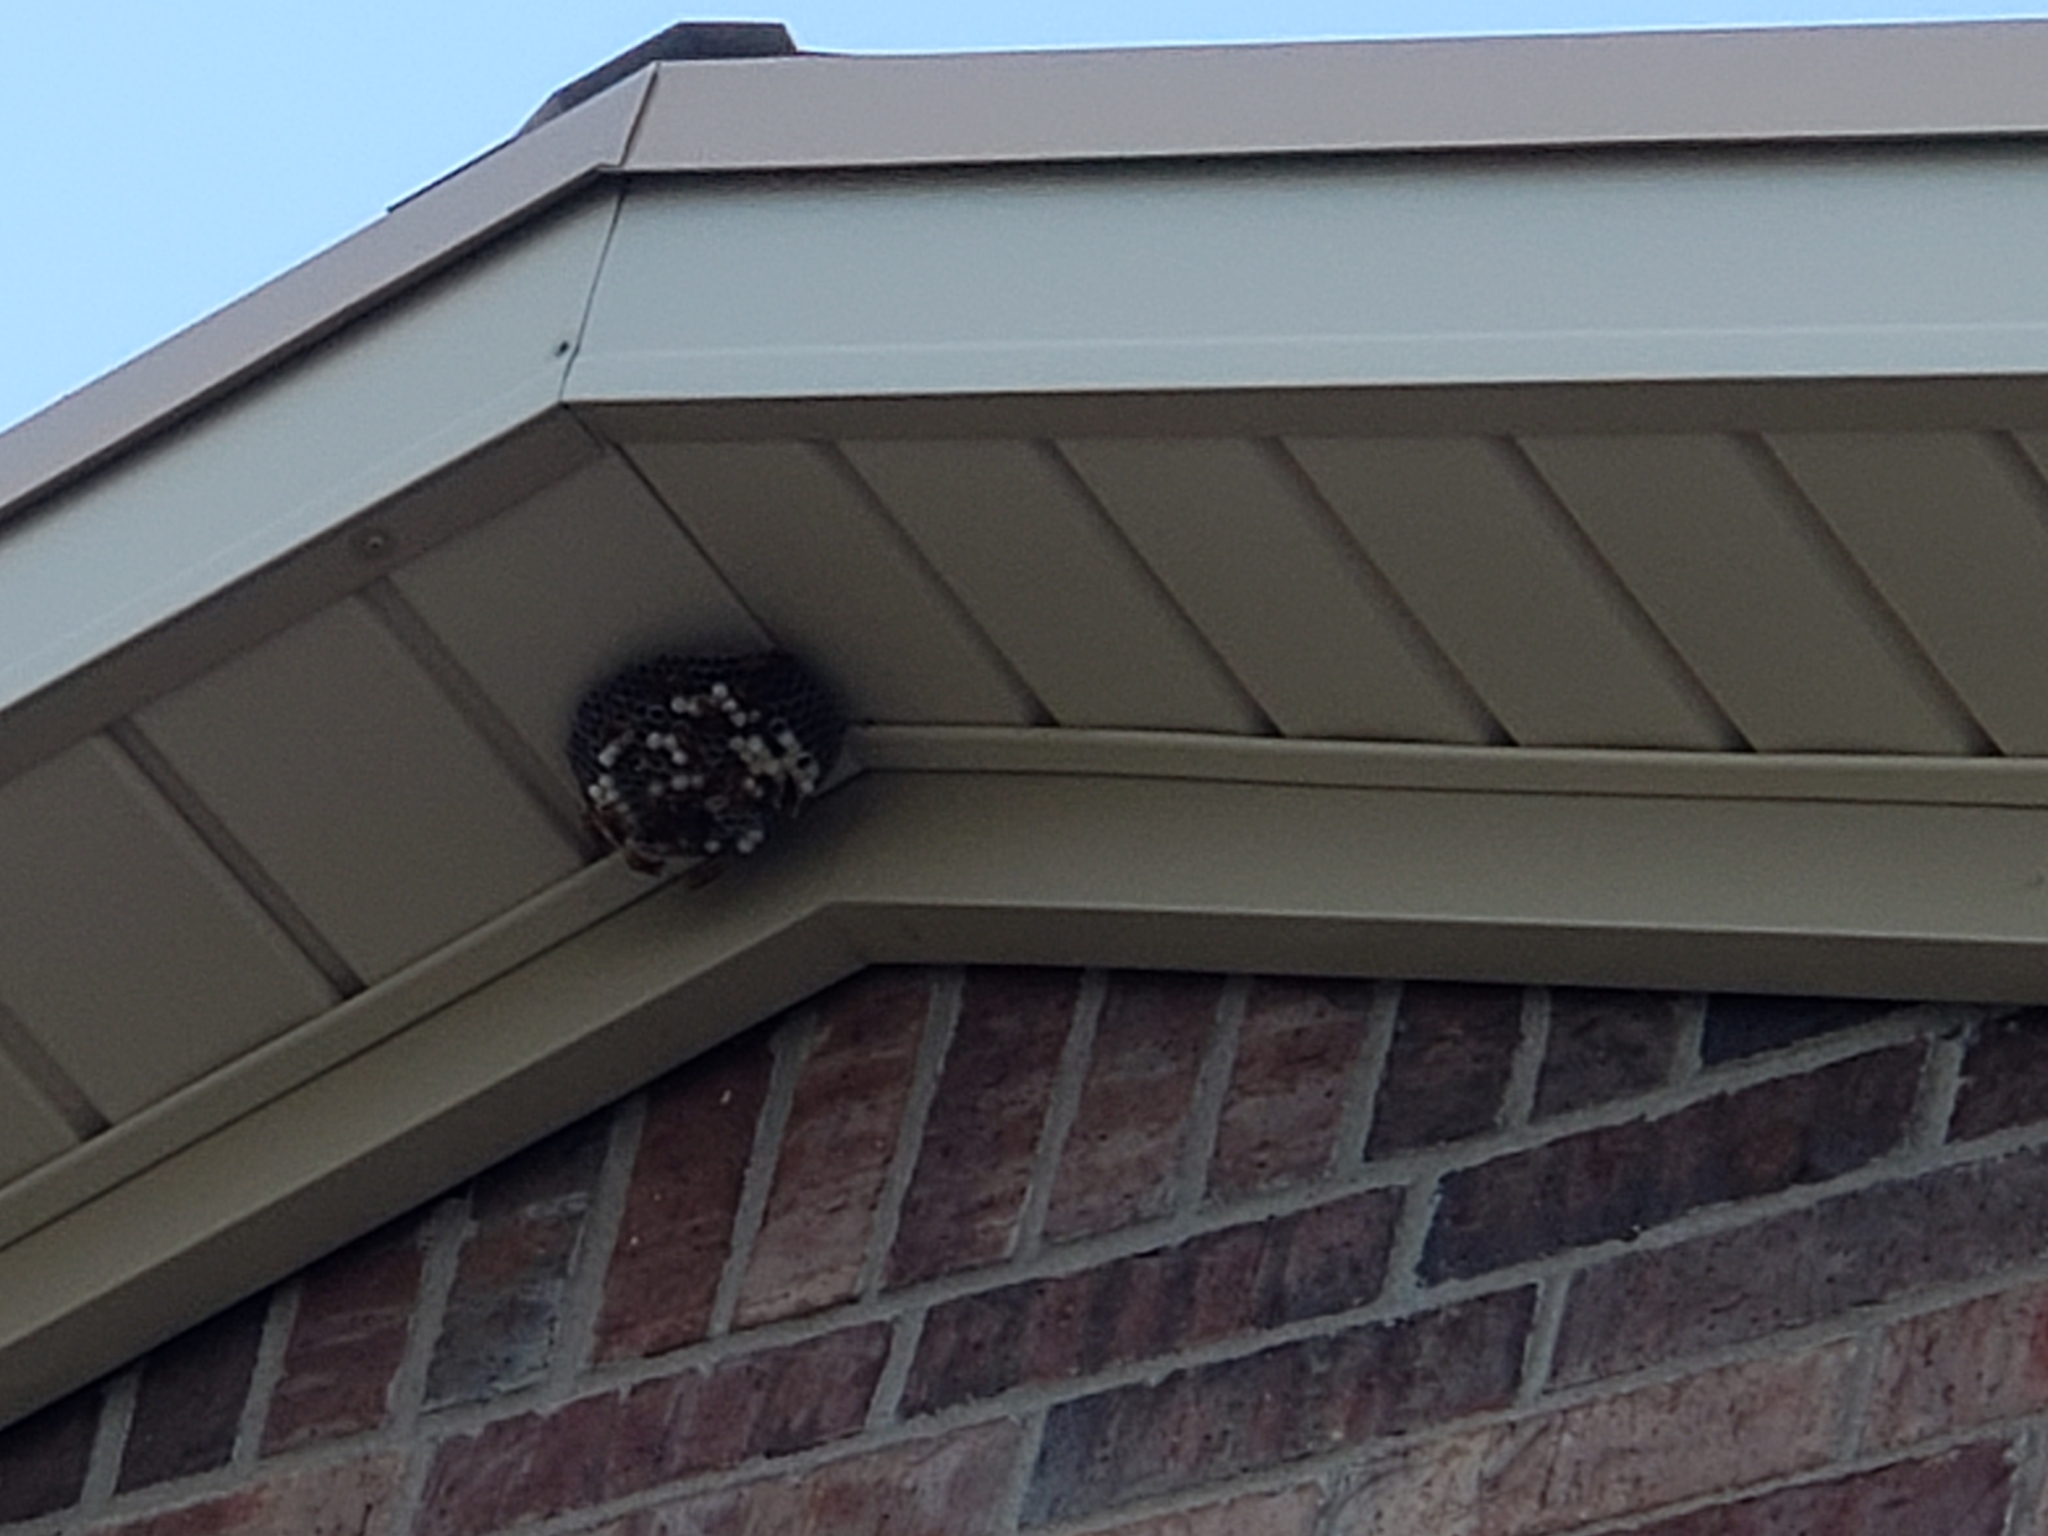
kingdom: Animalia
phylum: Arthropoda
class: Insecta
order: Hymenoptera
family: Eumenidae
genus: Polistes
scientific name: Polistes
